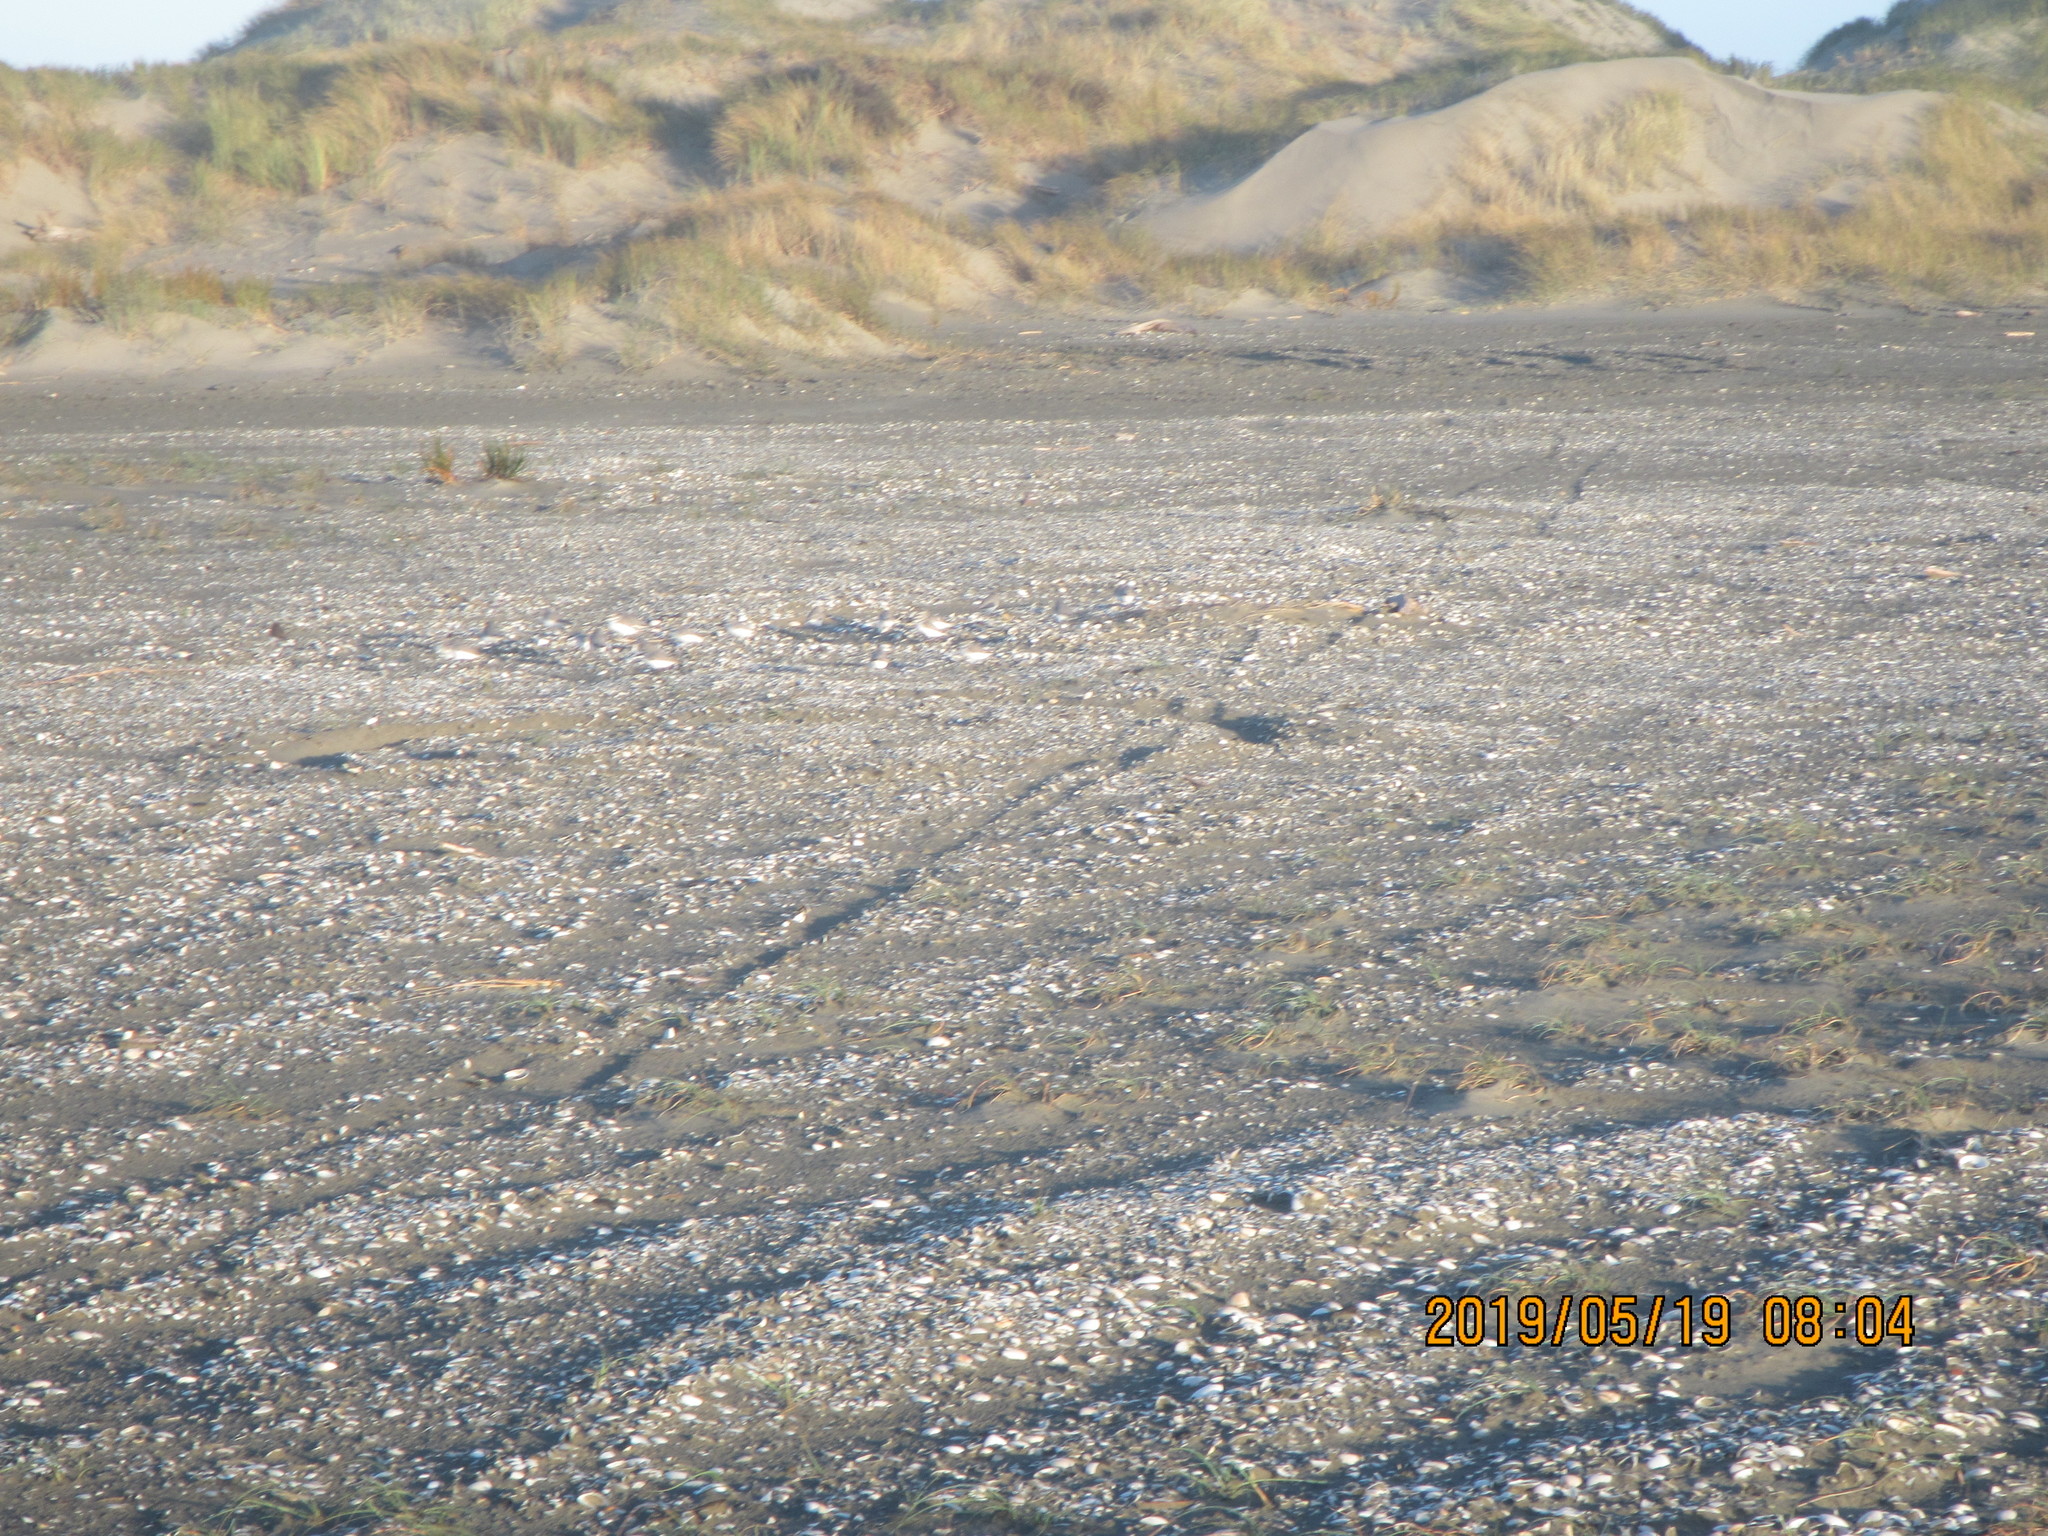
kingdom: Animalia
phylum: Chordata
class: Aves
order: Charadriiformes
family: Charadriidae
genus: Anarhynchus
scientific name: Anarhynchus frontalis
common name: Wrybill
